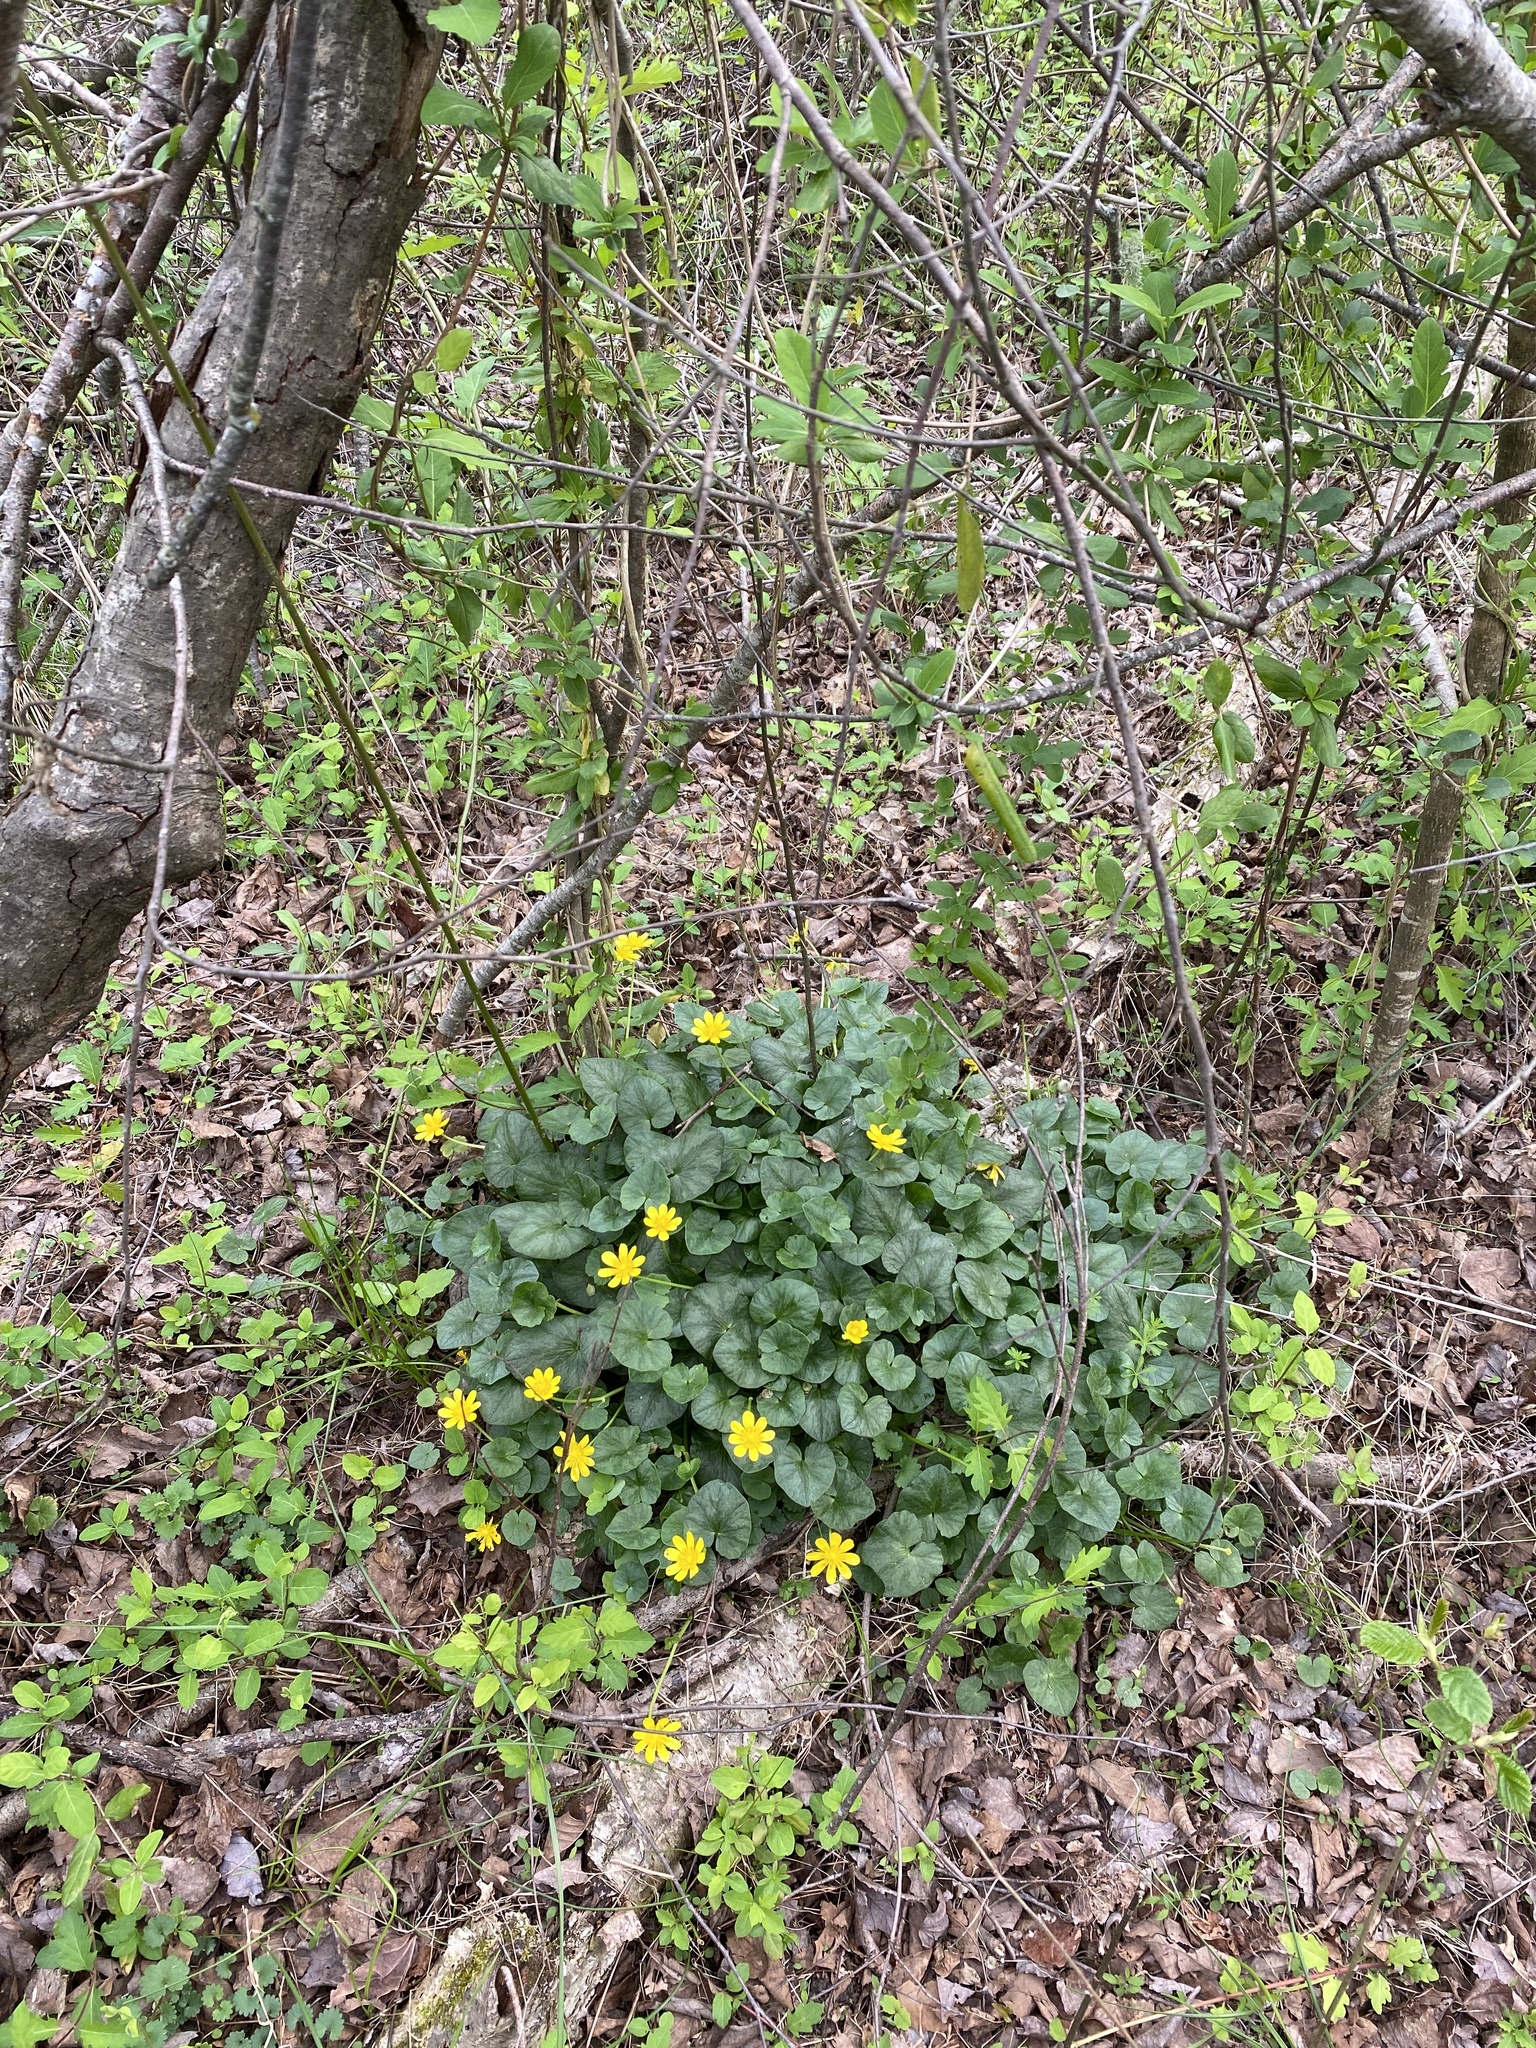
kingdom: Plantae
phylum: Tracheophyta
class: Magnoliopsida
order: Ranunculales
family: Ranunculaceae
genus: Ficaria
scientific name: Ficaria verna
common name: Lesser celandine
